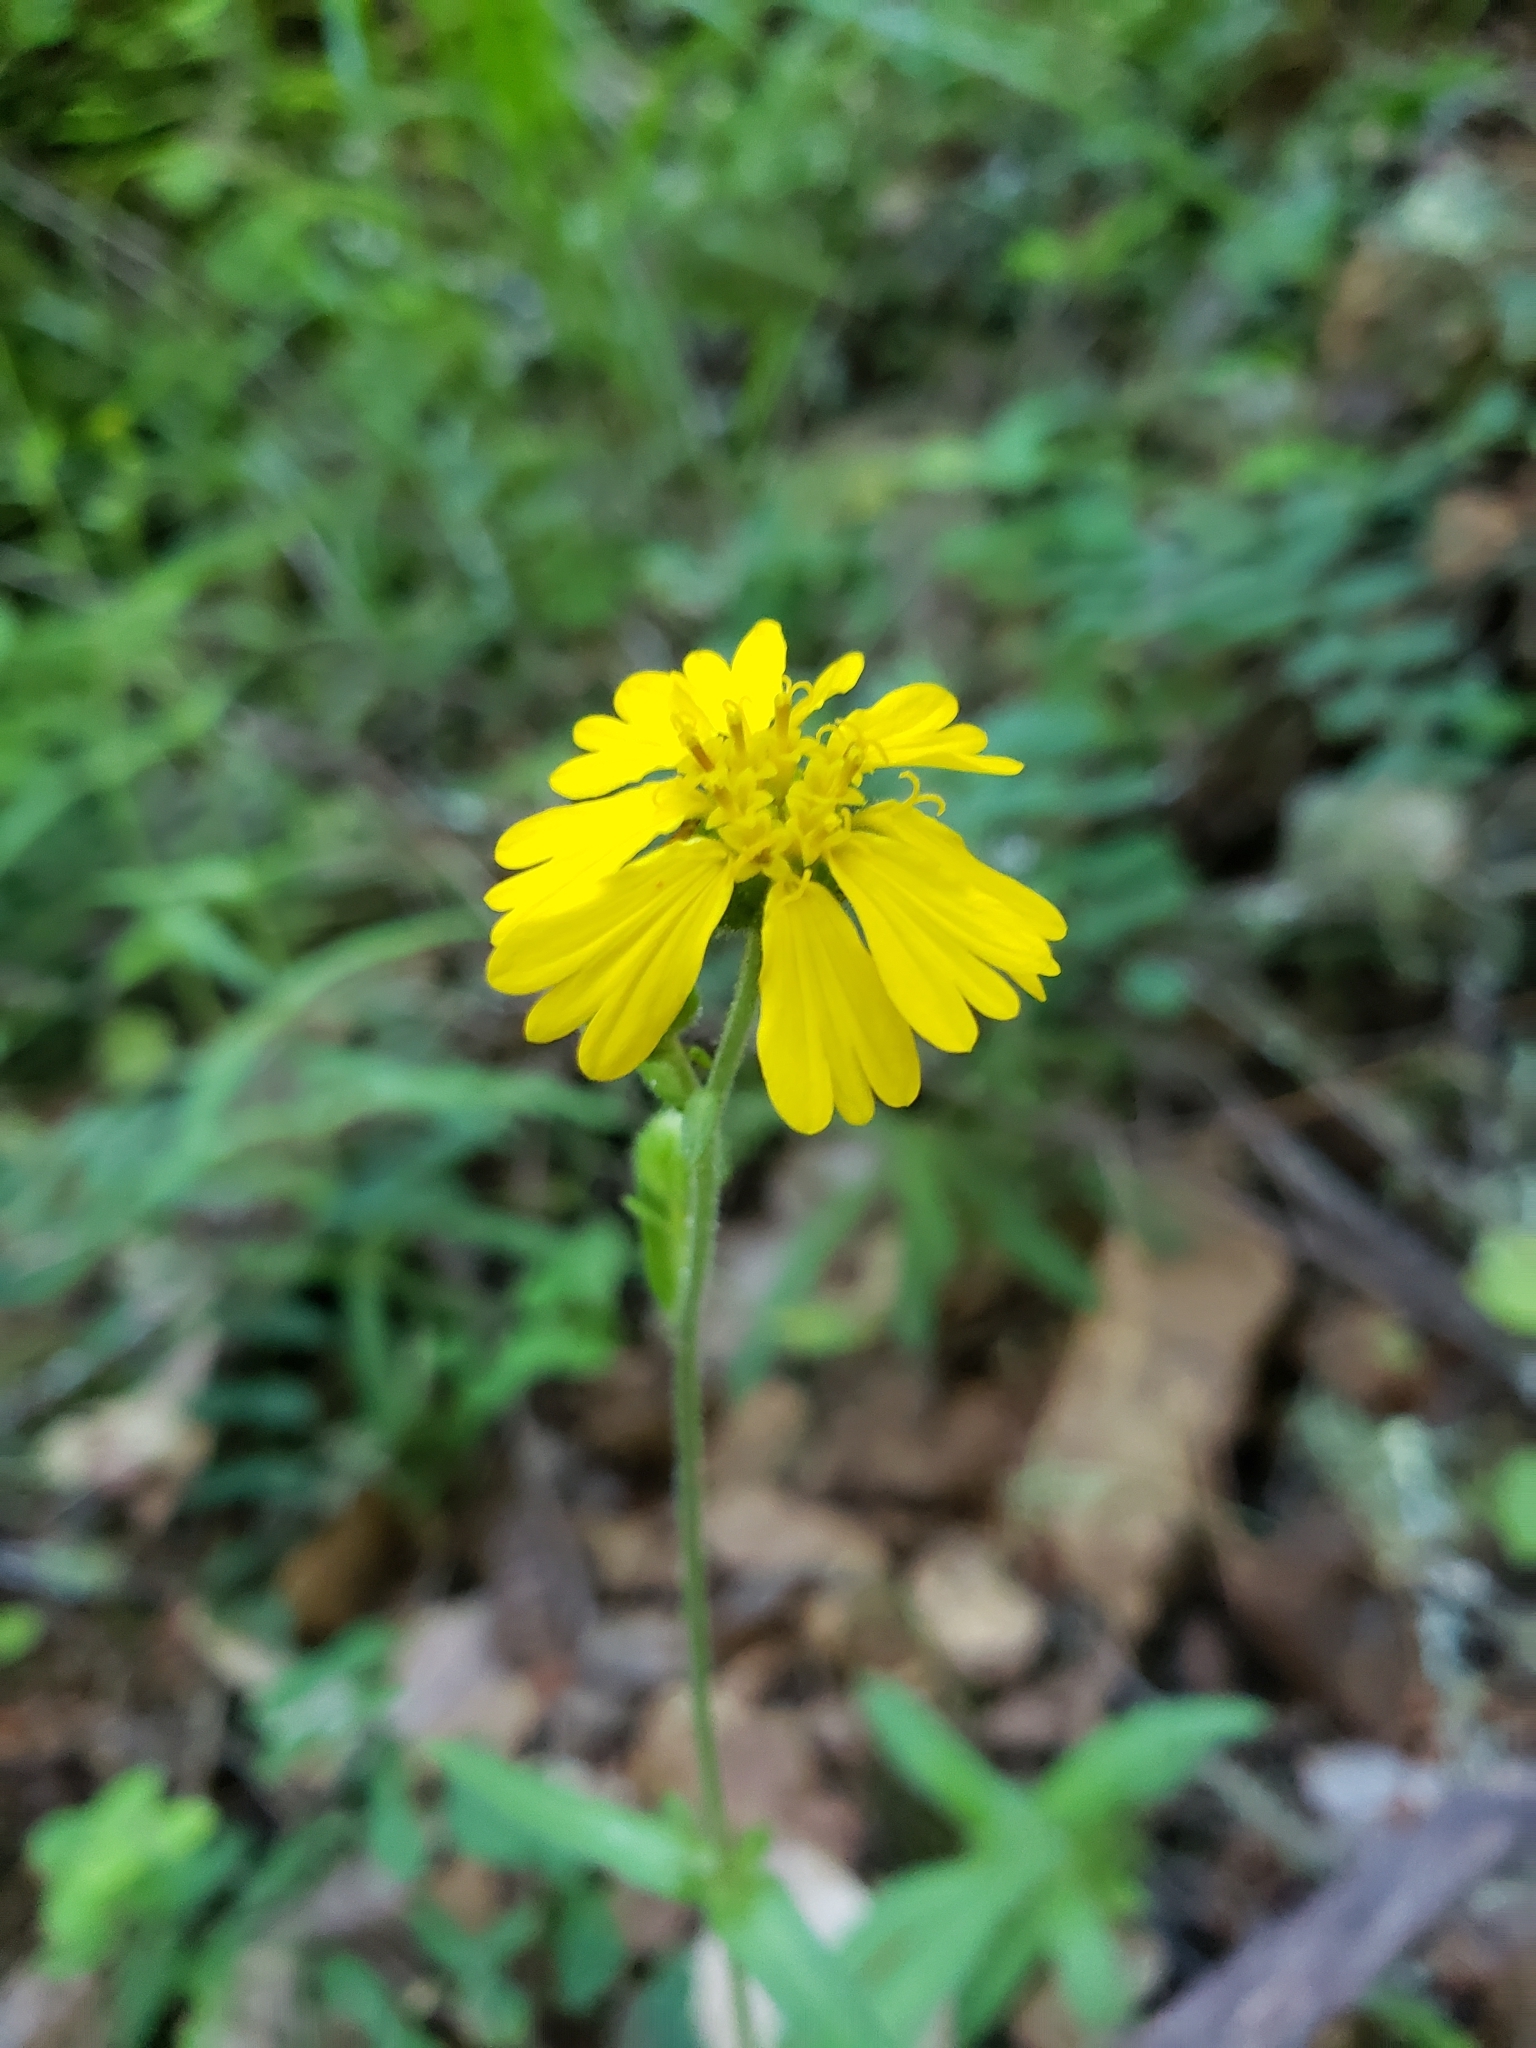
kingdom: Plantae
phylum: Tracheophyta
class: Magnoliopsida
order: Asterales
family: Asteraceae
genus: Anisocarpus
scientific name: Anisocarpus madioides
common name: Woodland madia
